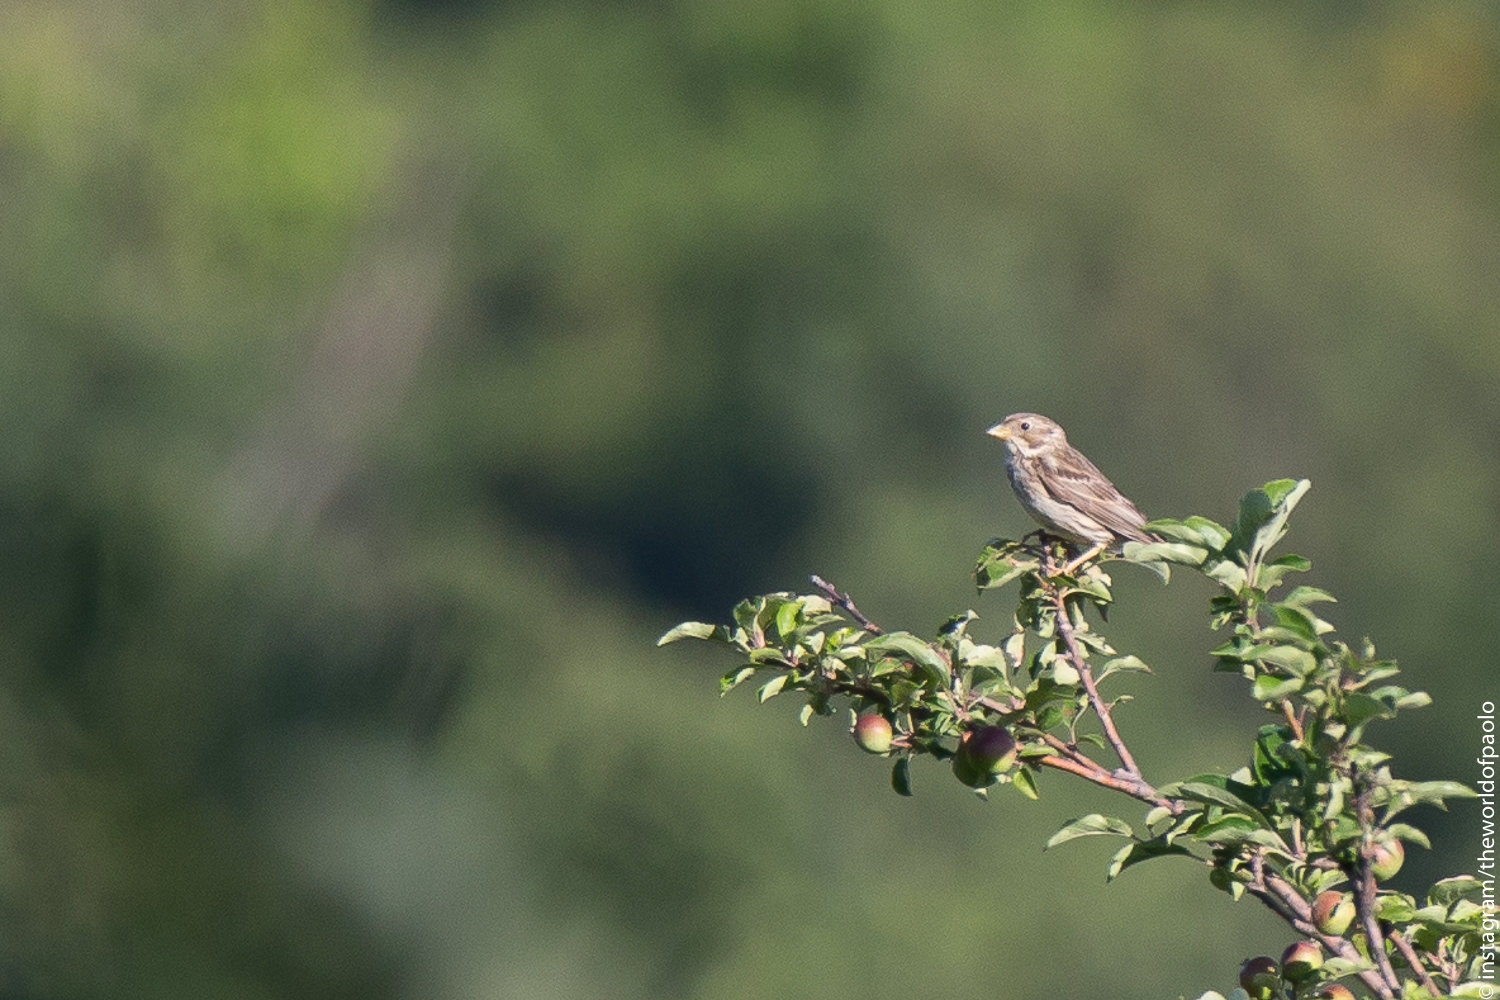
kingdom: Animalia
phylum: Chordata
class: Aves
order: Passeriformes
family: Emberizidae
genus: Emberiza
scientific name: Emberiza calandra
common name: Corn bunting
